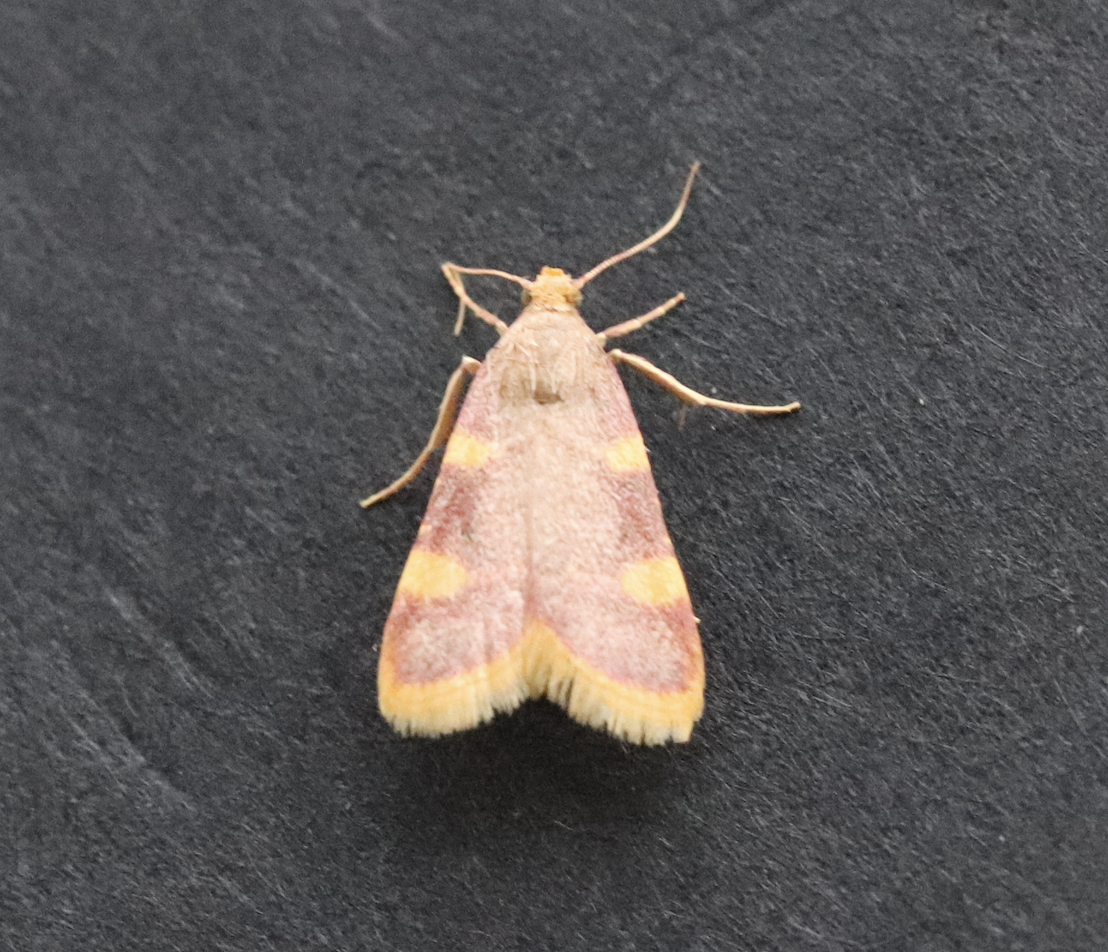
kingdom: Animalia
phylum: Arthropoda
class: Insecta
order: Lepidoptera
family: Pyralidae
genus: Hypsopygia
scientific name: Hypsopygia costalis
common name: Gold triangle
